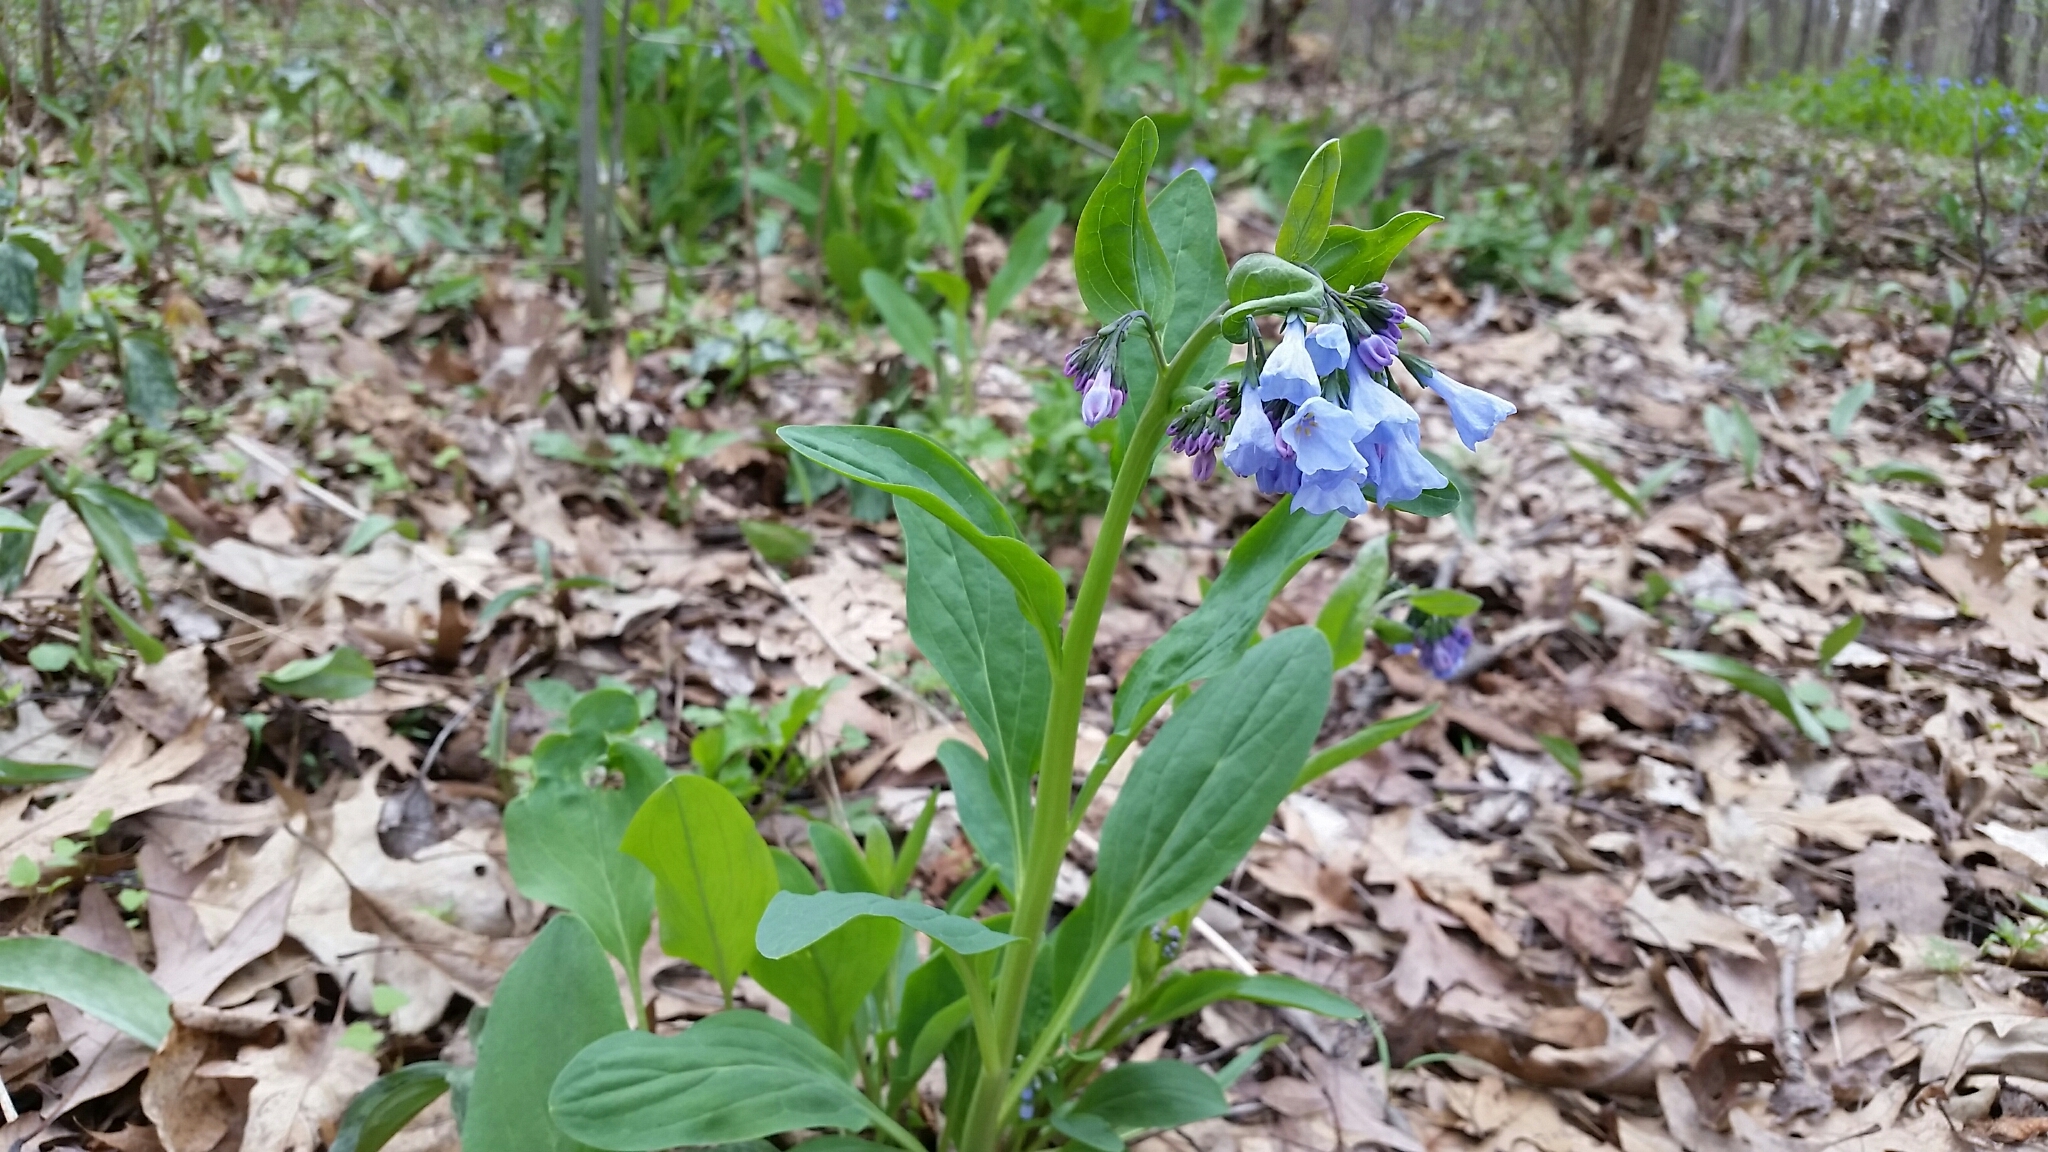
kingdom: Plantae
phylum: Tracheophyta
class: Magnoliopsida
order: Boraginales
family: Boraginaceae
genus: Mertensia
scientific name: Mertensia virginica
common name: Virginia bluebells
